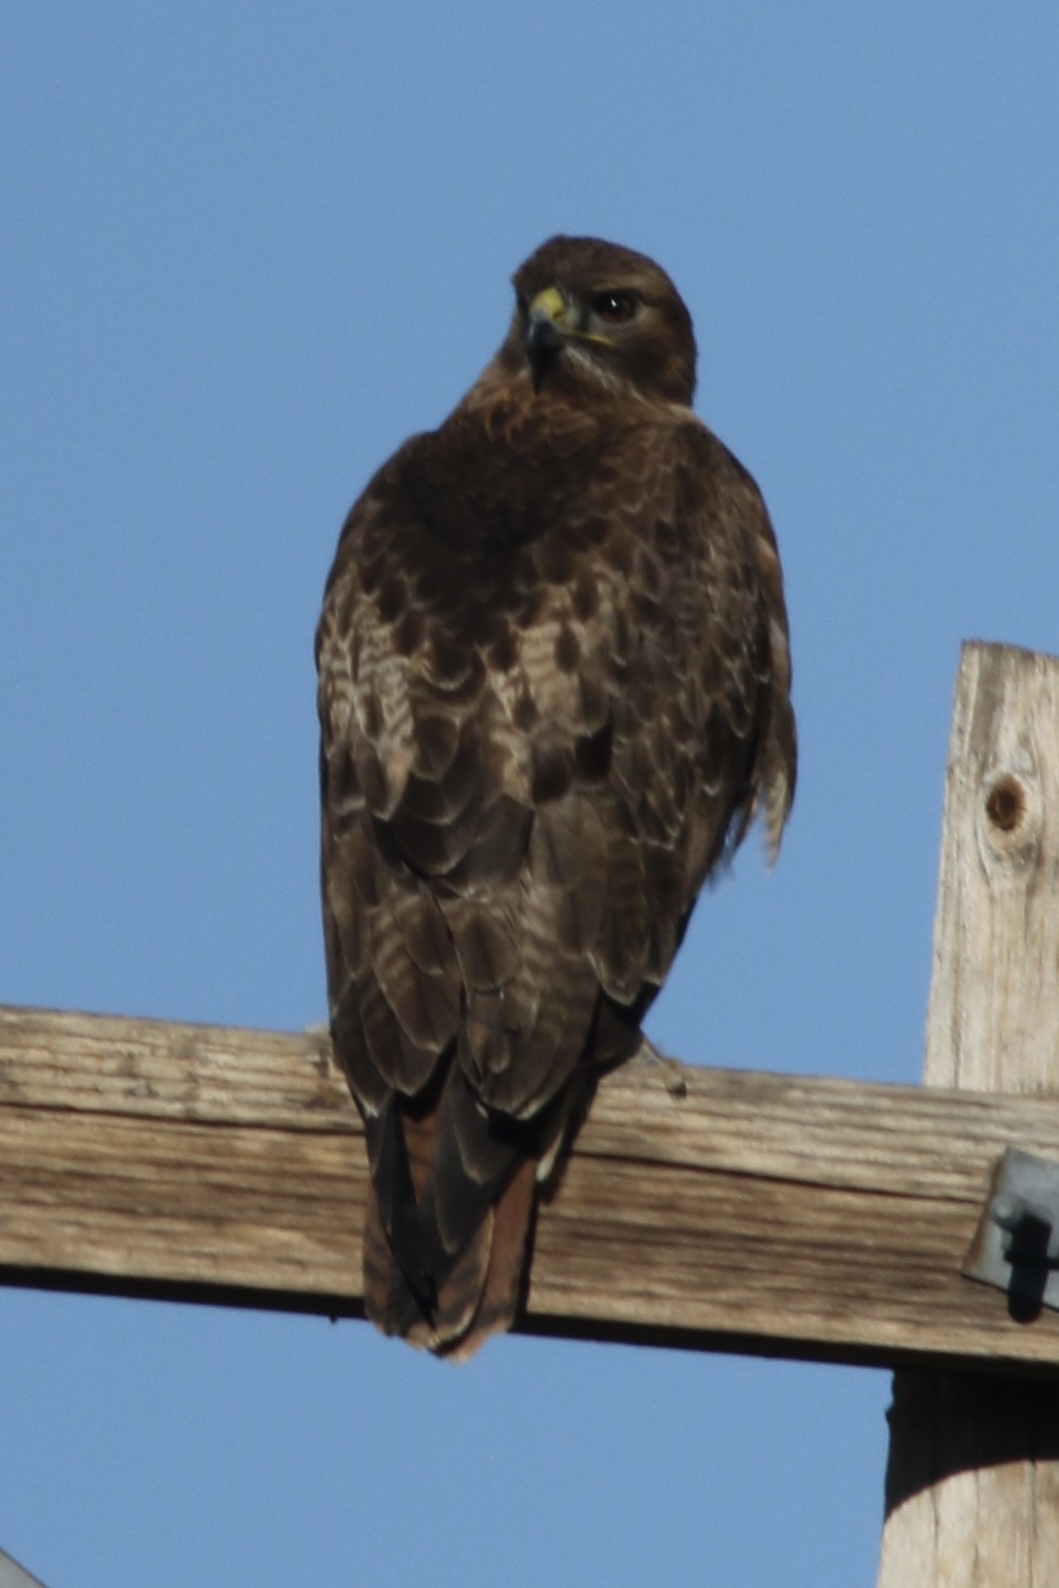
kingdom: Animalia
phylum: Chordata
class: Aves
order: Accipitriformes
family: Accipitridae
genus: Buteo
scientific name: Buteo jamaicensis
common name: Red-tailed hawk
